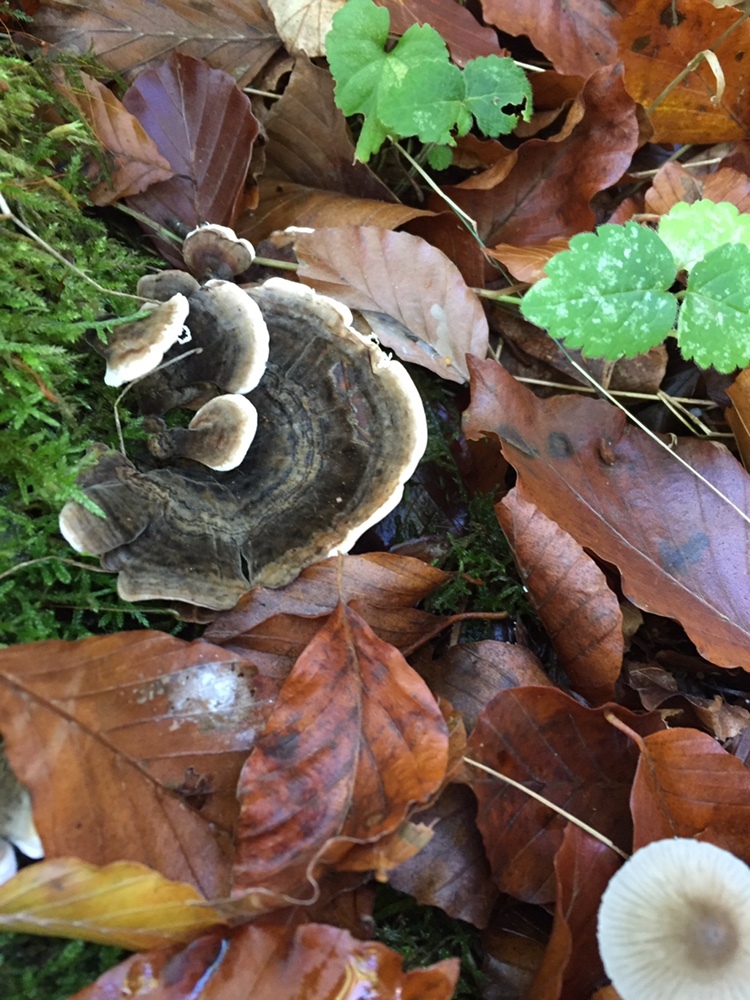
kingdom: Fungi
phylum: Basidiomycota
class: Agaricomycetes
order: Polyporales
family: Polyporaceae
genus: Trametes
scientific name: Trametes versicolor
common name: Turkeytail
